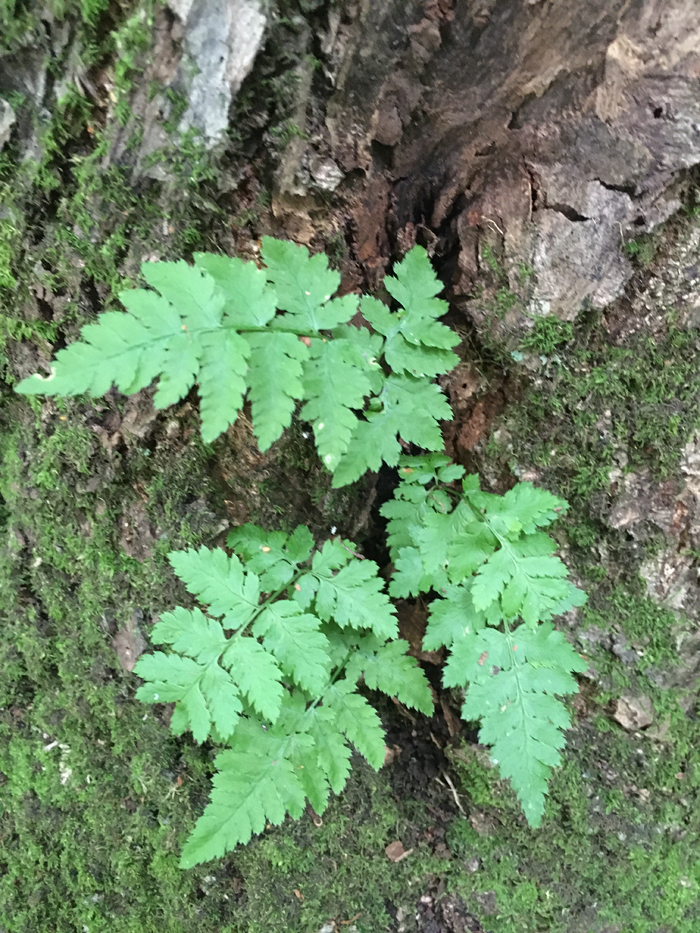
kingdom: Plantae
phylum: Tracheophyta
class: Polypodiopsida
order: Polypodiales
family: Dryopteridaceae
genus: Dryopteris
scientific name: Dryopteris carthusiana
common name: Narrow buckler-fern
